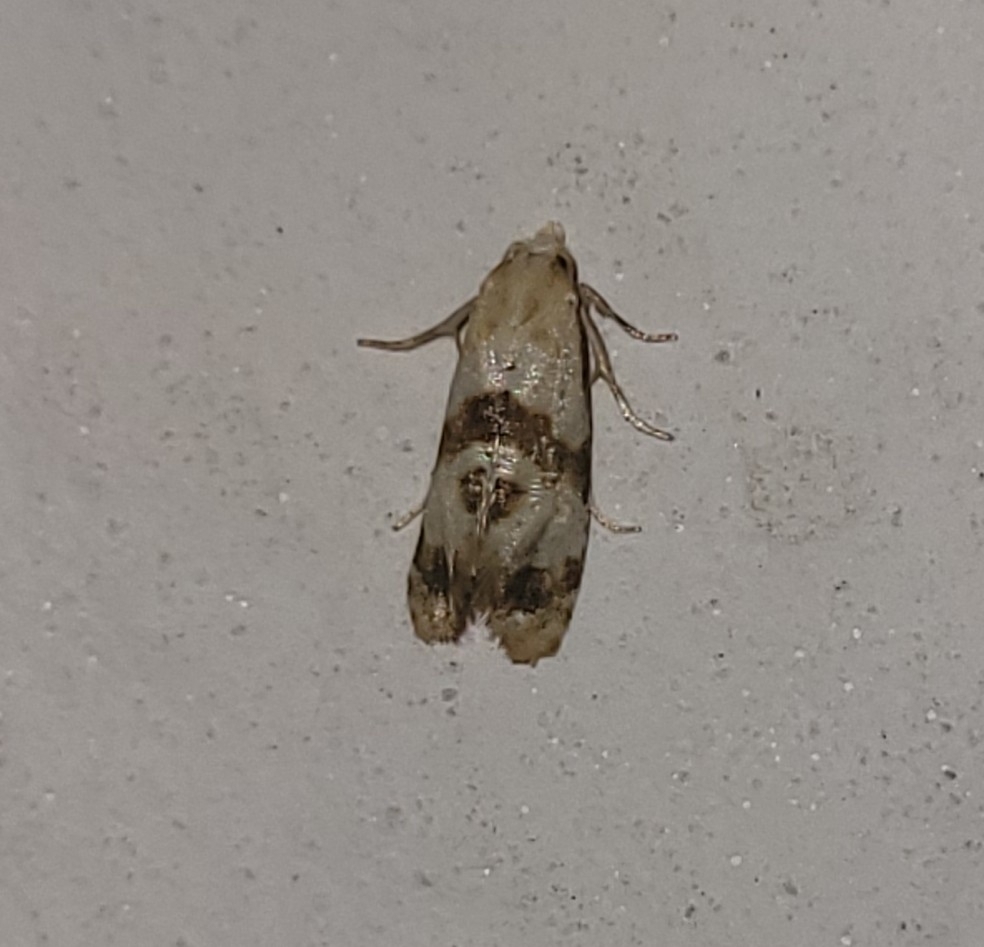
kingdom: Animalia
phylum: Arthropoda
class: Insecta
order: Lepidoptera
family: Tortricidae
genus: Phalonidia
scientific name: Phalonidia contractana
